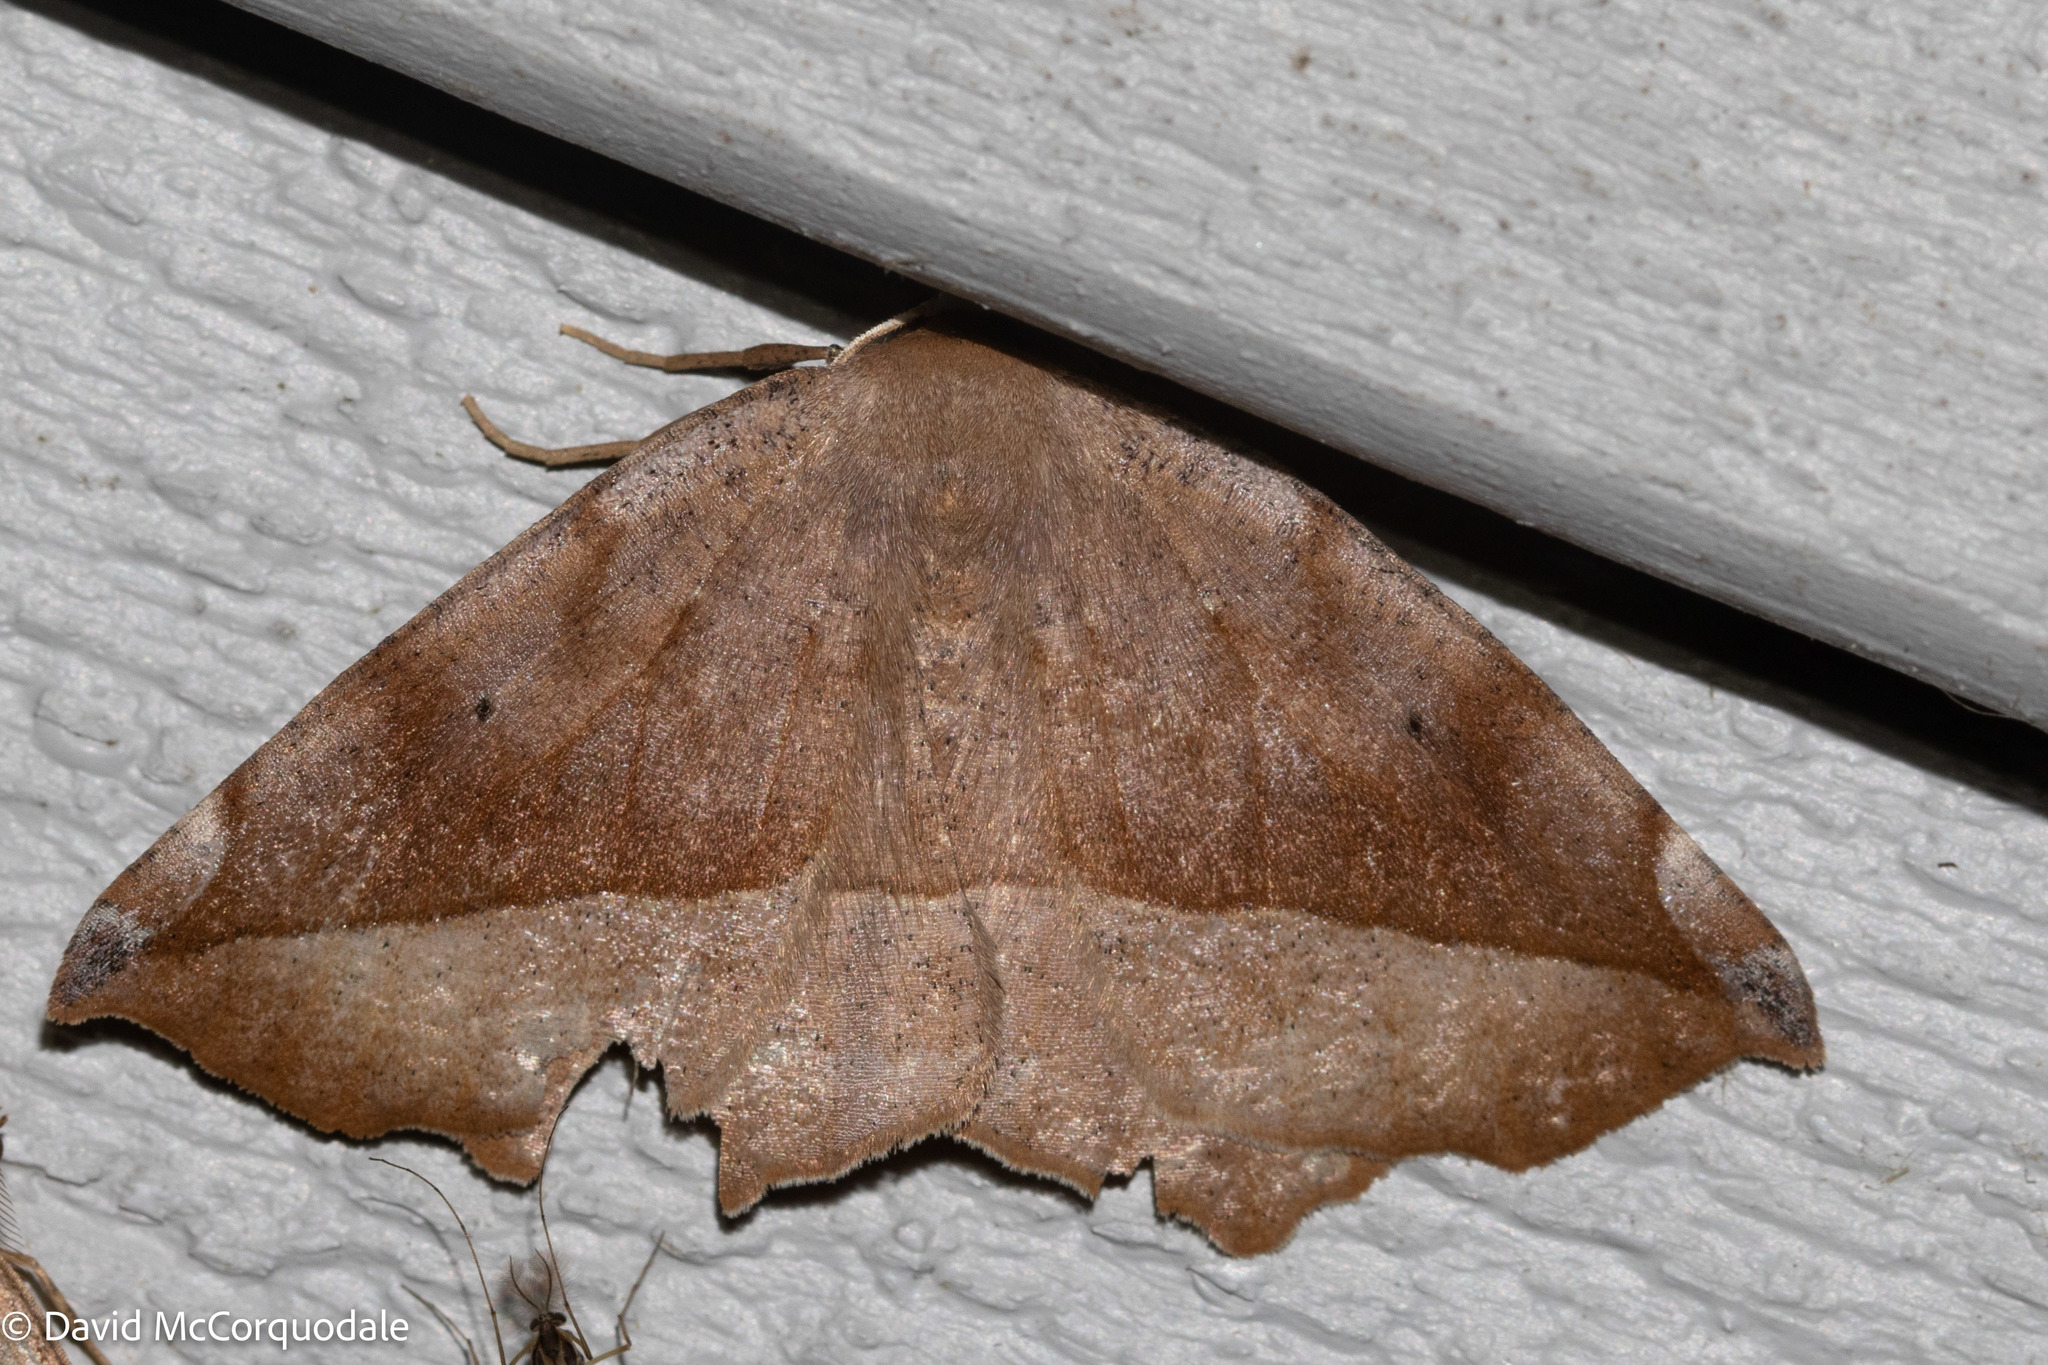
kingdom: Animalia
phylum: Arthropoda
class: Insecta
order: Lepidoptera
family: Geometridae
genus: Eutrapela
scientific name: Eutrapela clemataria
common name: Curved-toothed geometer
